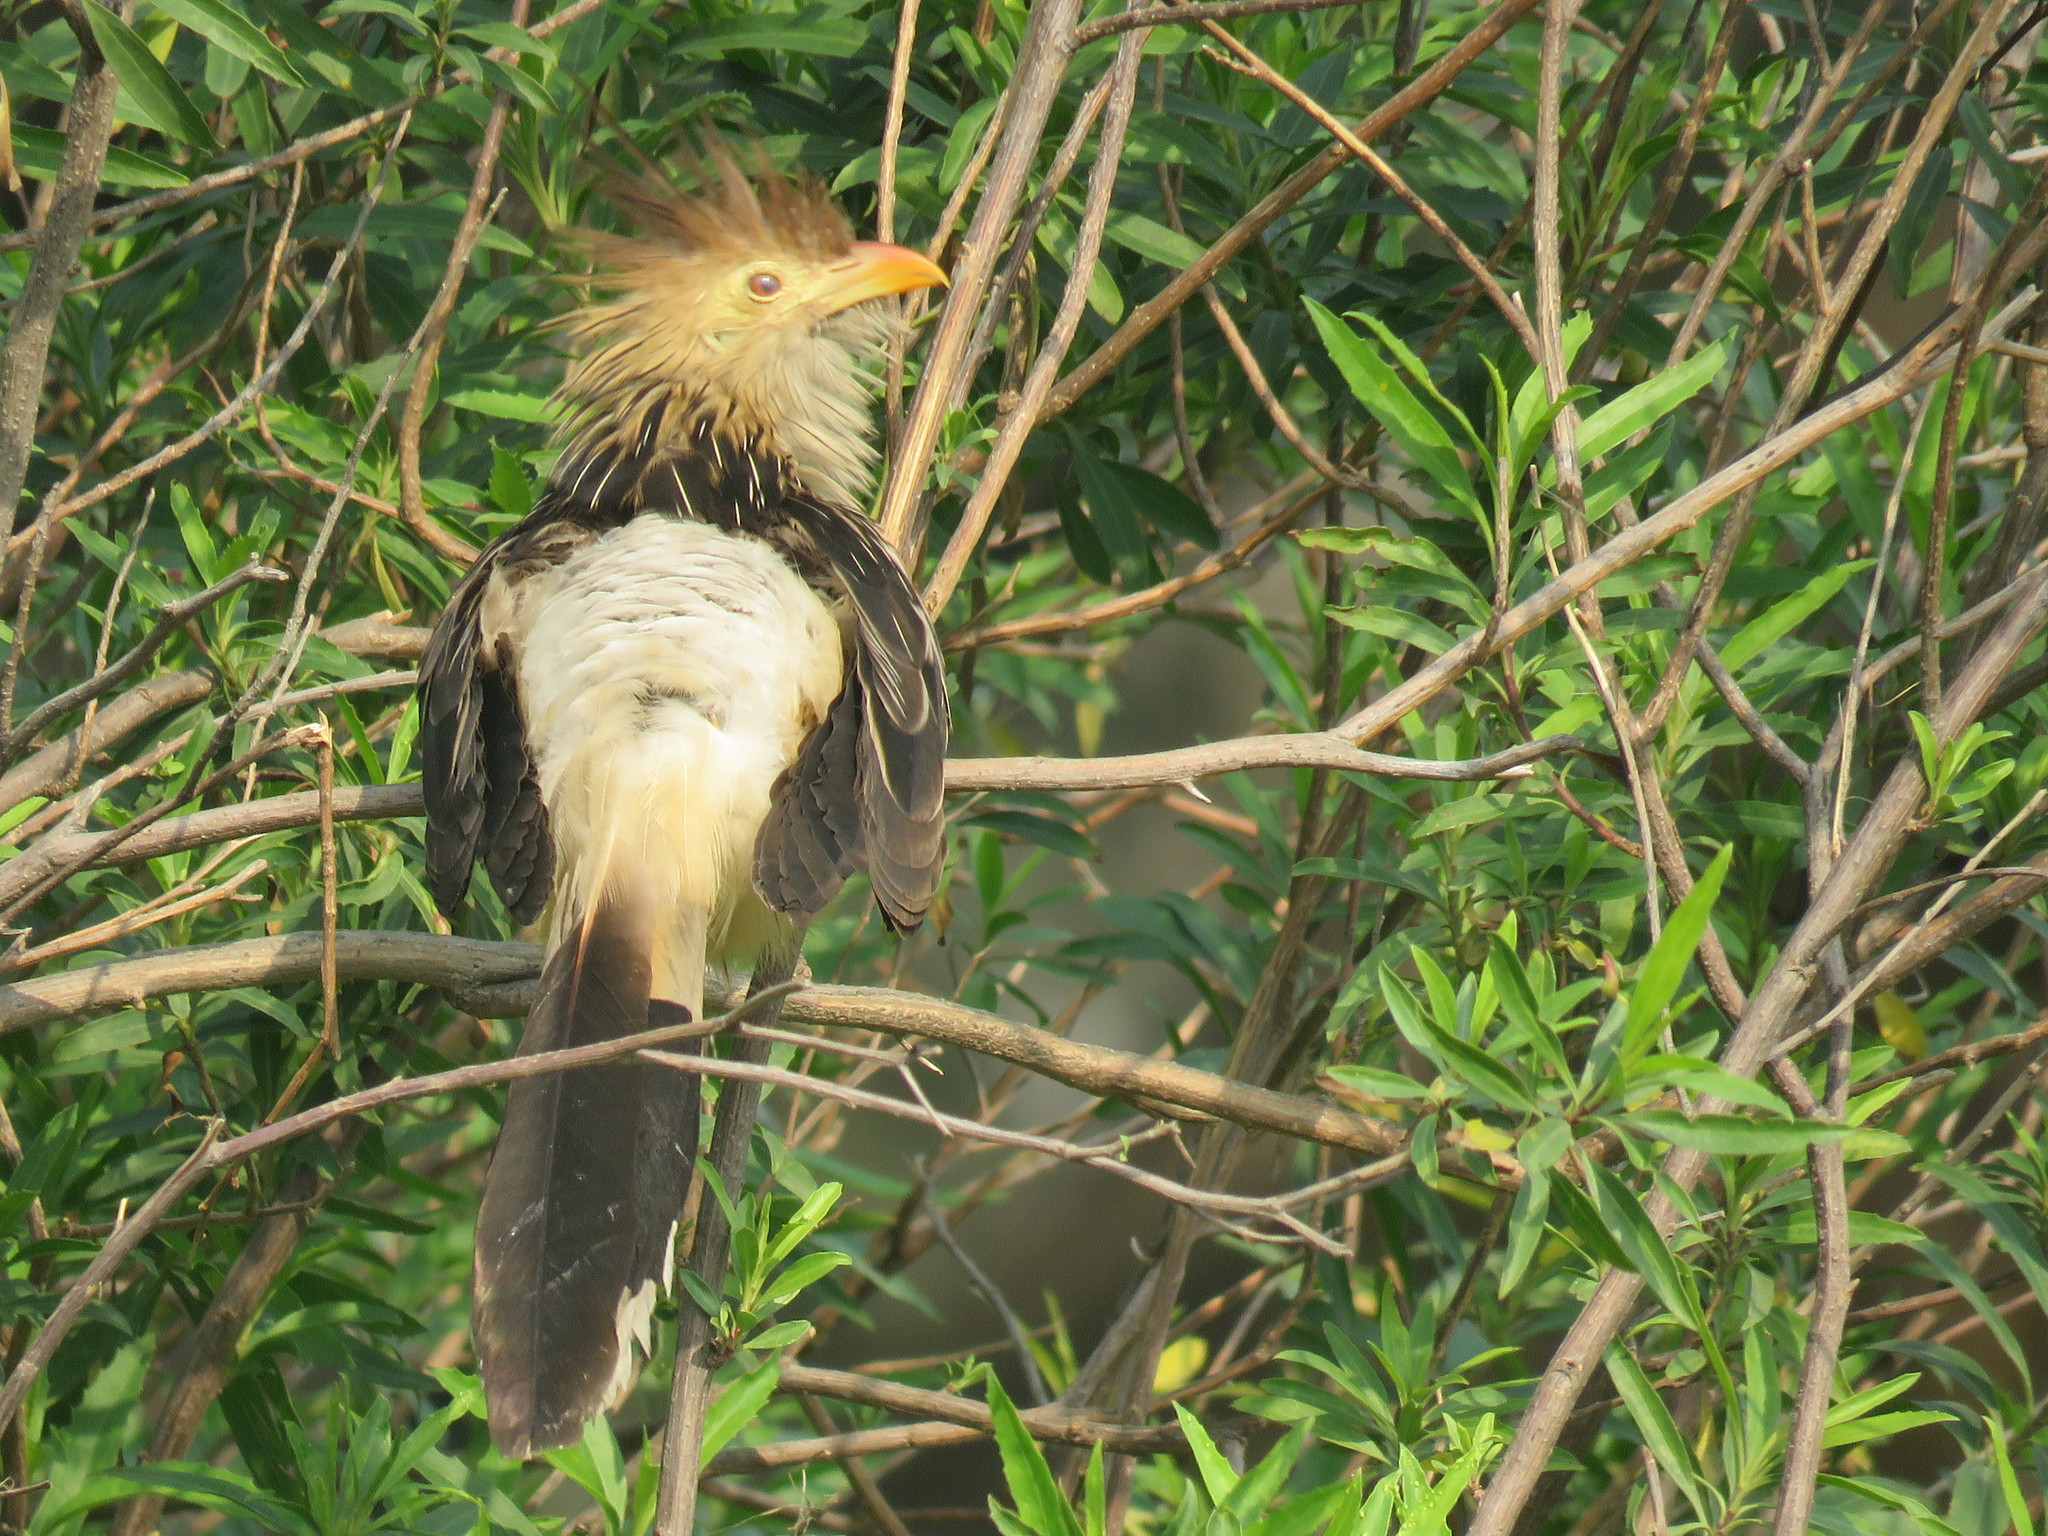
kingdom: Animalia
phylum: Chordata
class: Aves
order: Cuculiformes
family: Cuculidae
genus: Guira
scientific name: Guira guira
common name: Guira cuckoo
